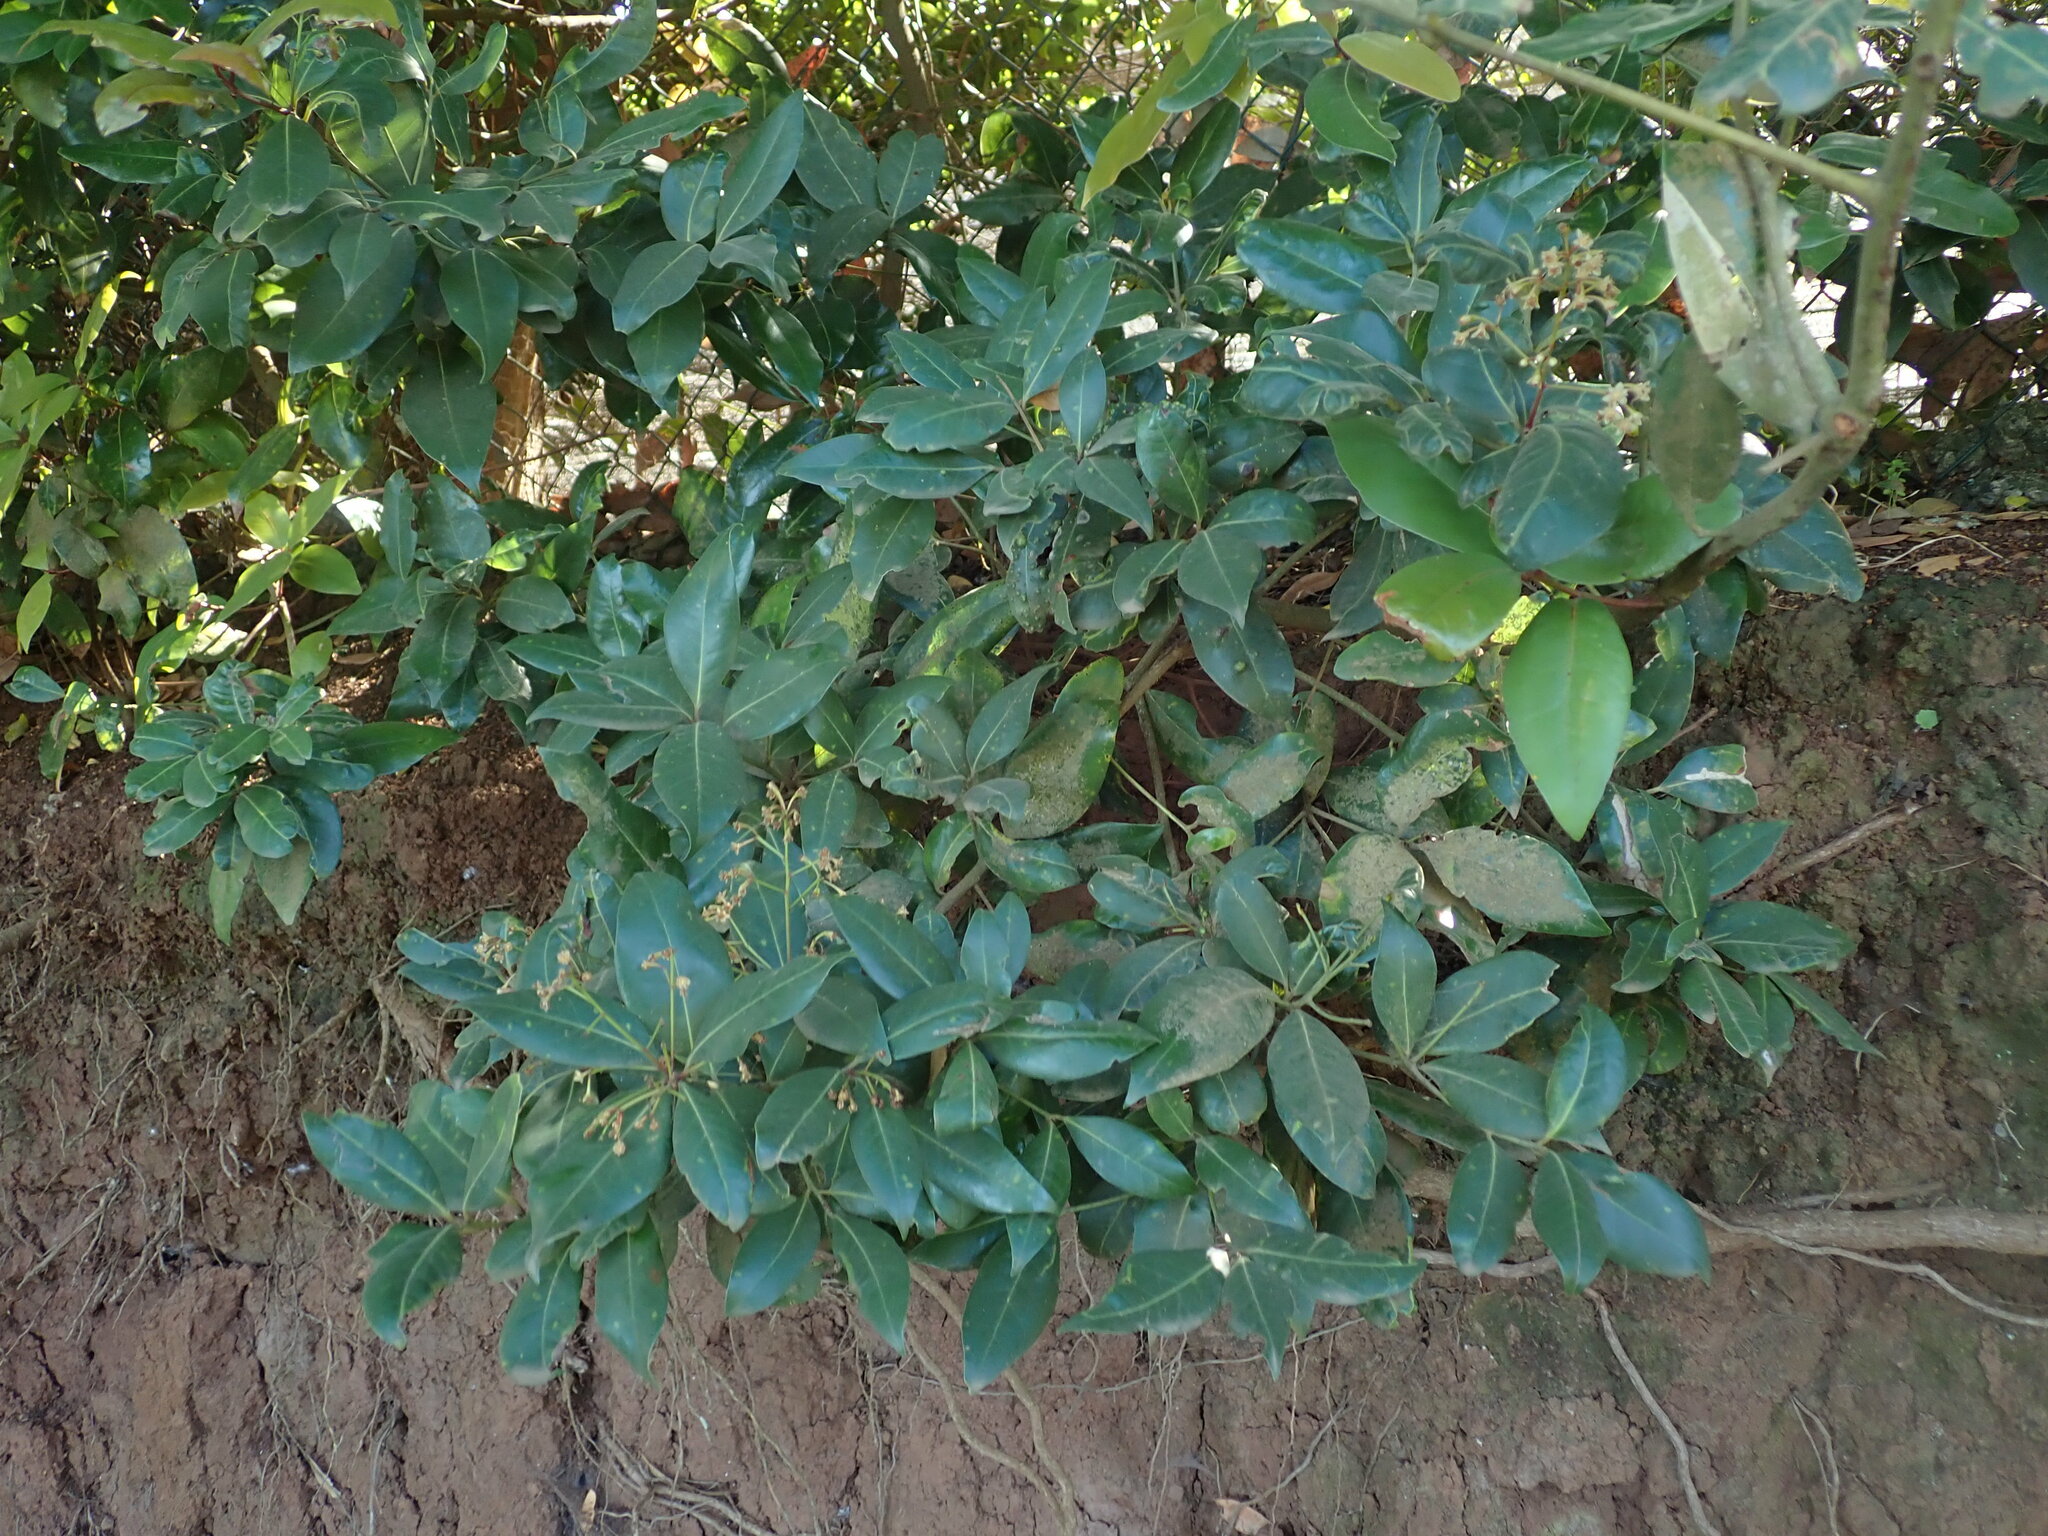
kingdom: Plantae
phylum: Tracheophyta
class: Magnoliopsida
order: Laurales
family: Lauraceae
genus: Apollonias
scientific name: Apollonias barbujana
